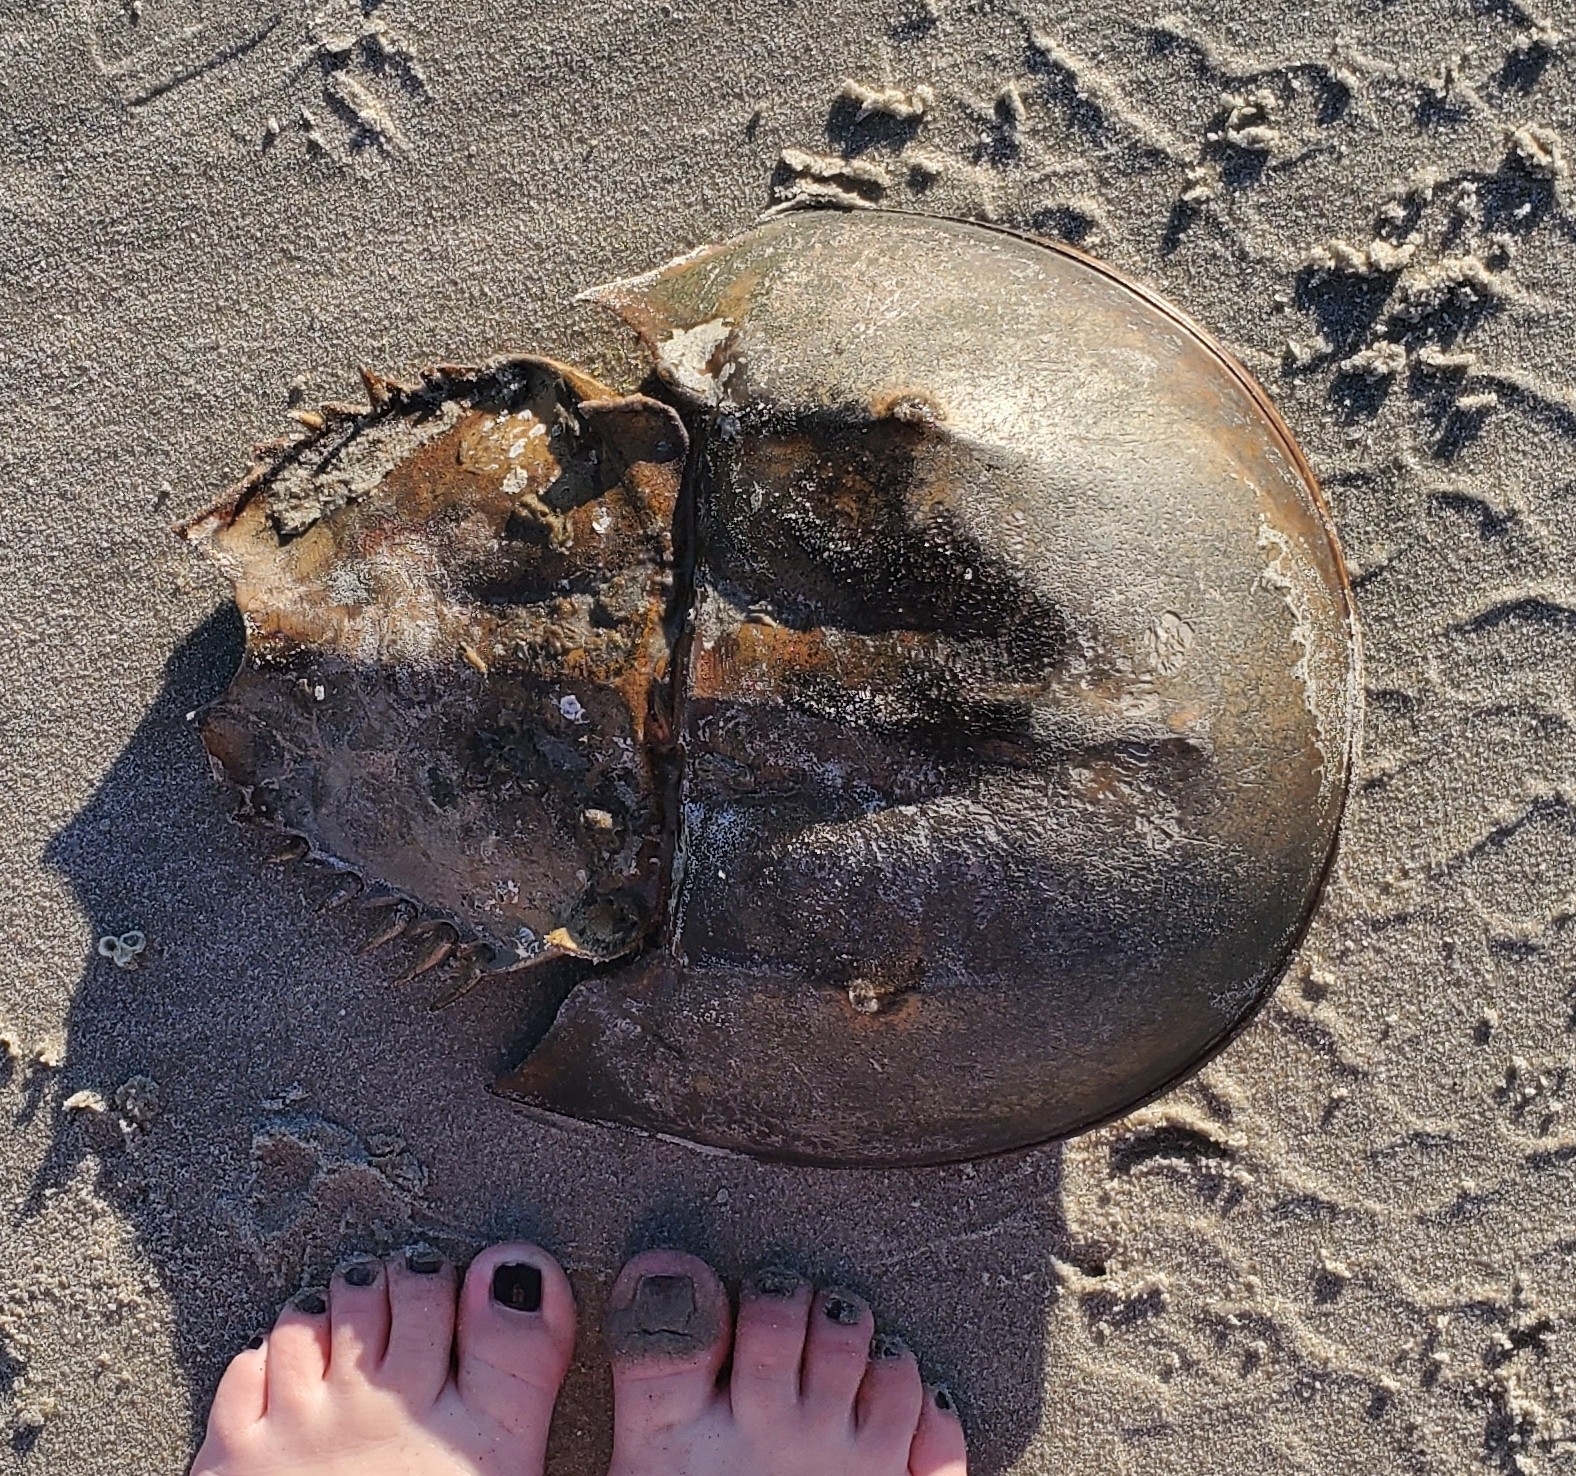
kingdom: Animalia
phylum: Arthropoda
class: Merostomata
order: Xiphosurida
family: Limulidae
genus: Limulus
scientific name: Limulus polyphemus
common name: Horseshoe crab
